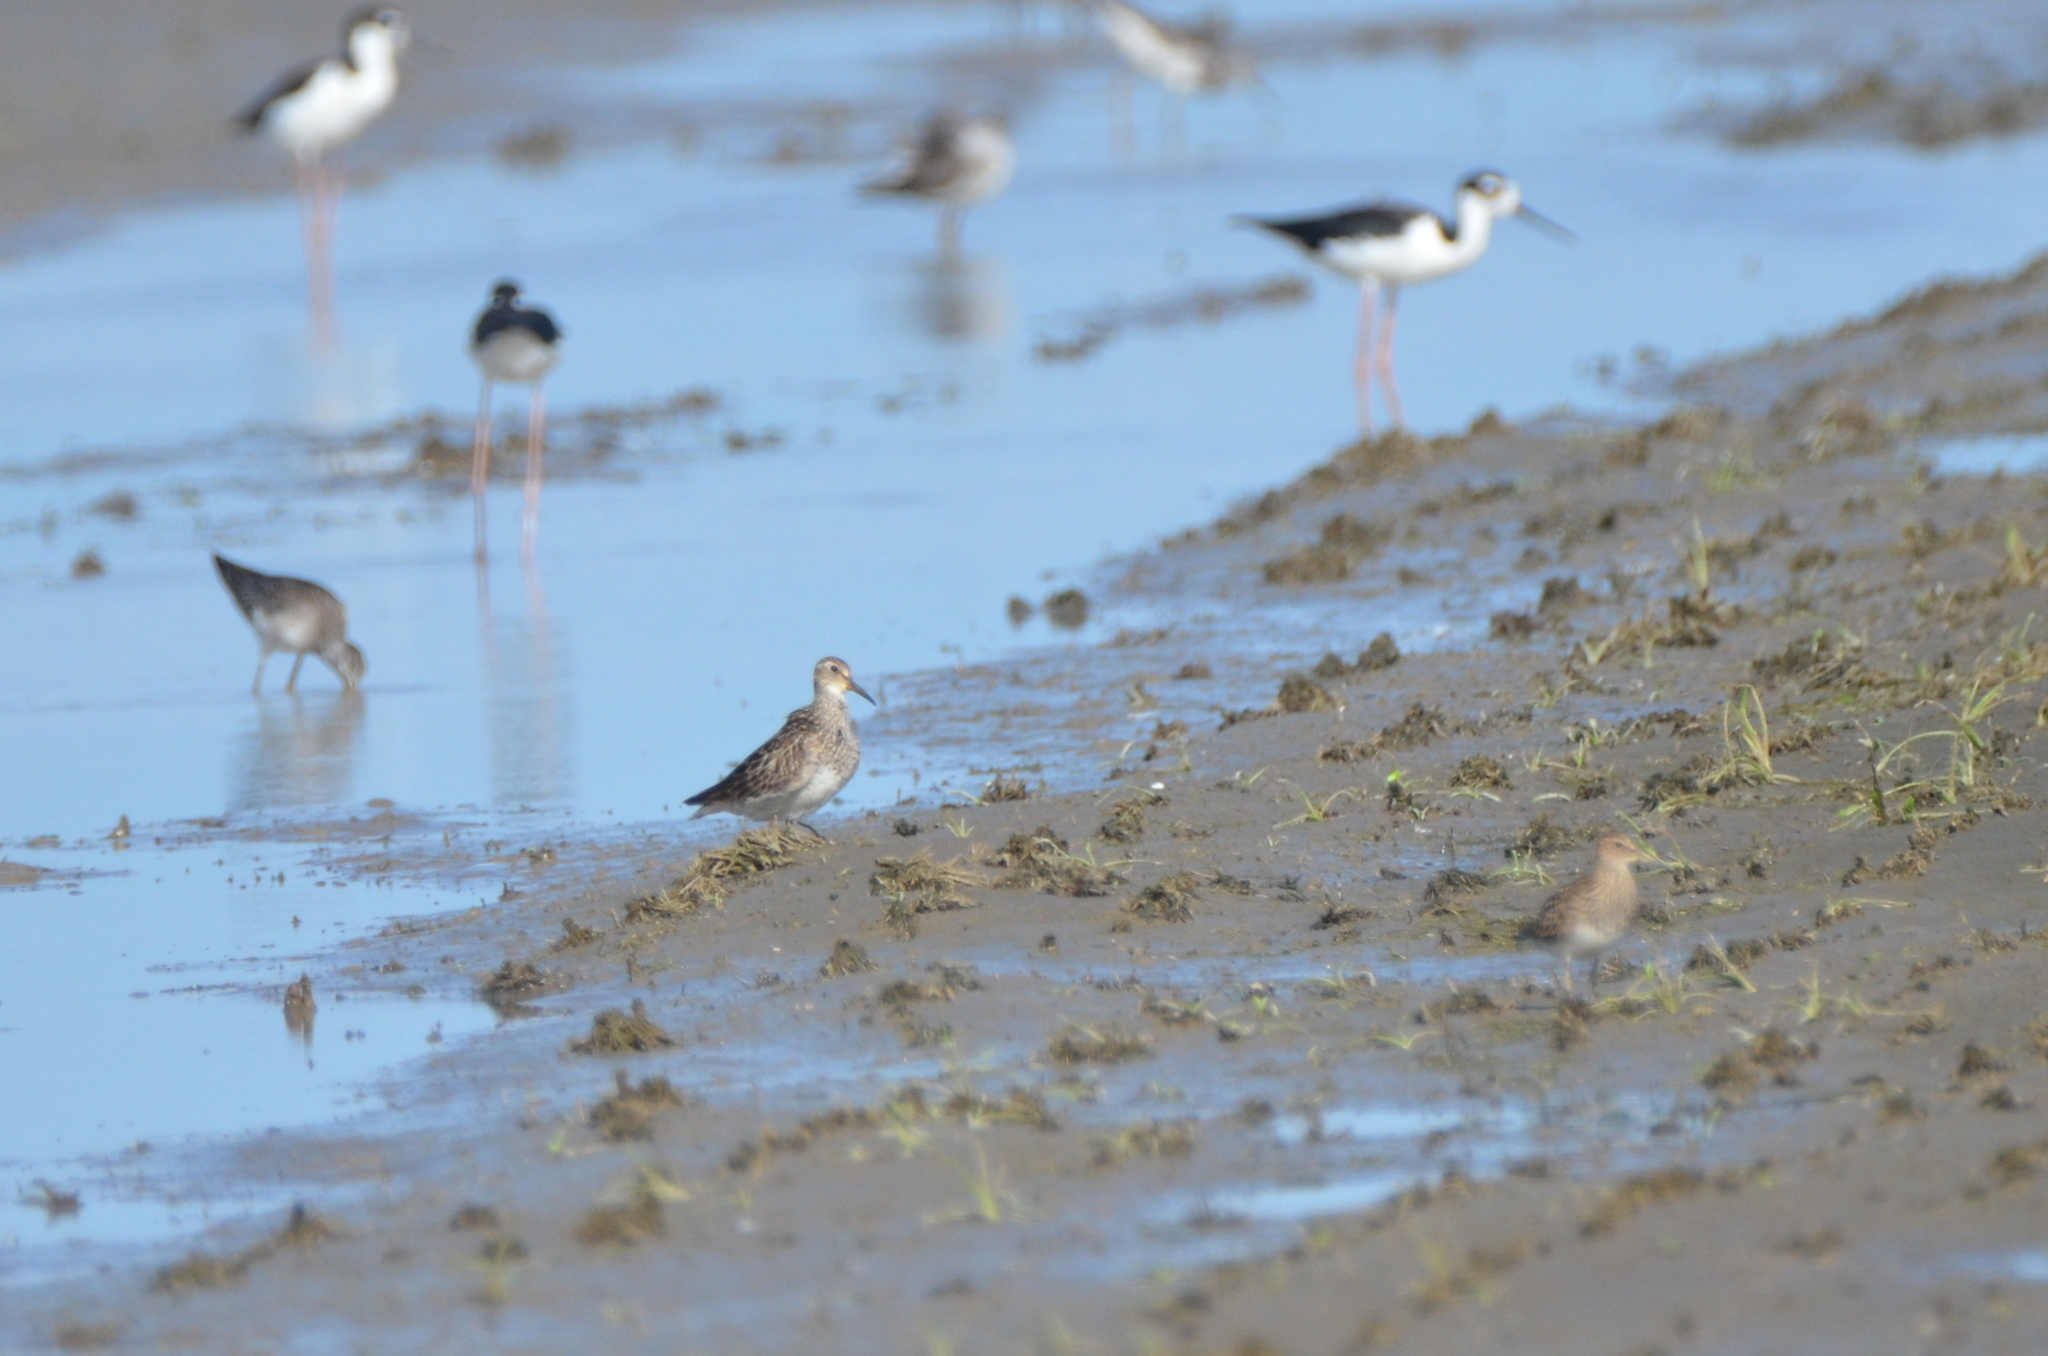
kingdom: Animalia
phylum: Chordata
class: Aves
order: Charadriiformes
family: Scolopacidae
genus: Calidris
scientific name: Calidris melanotos
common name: Pectoral sandpiper
